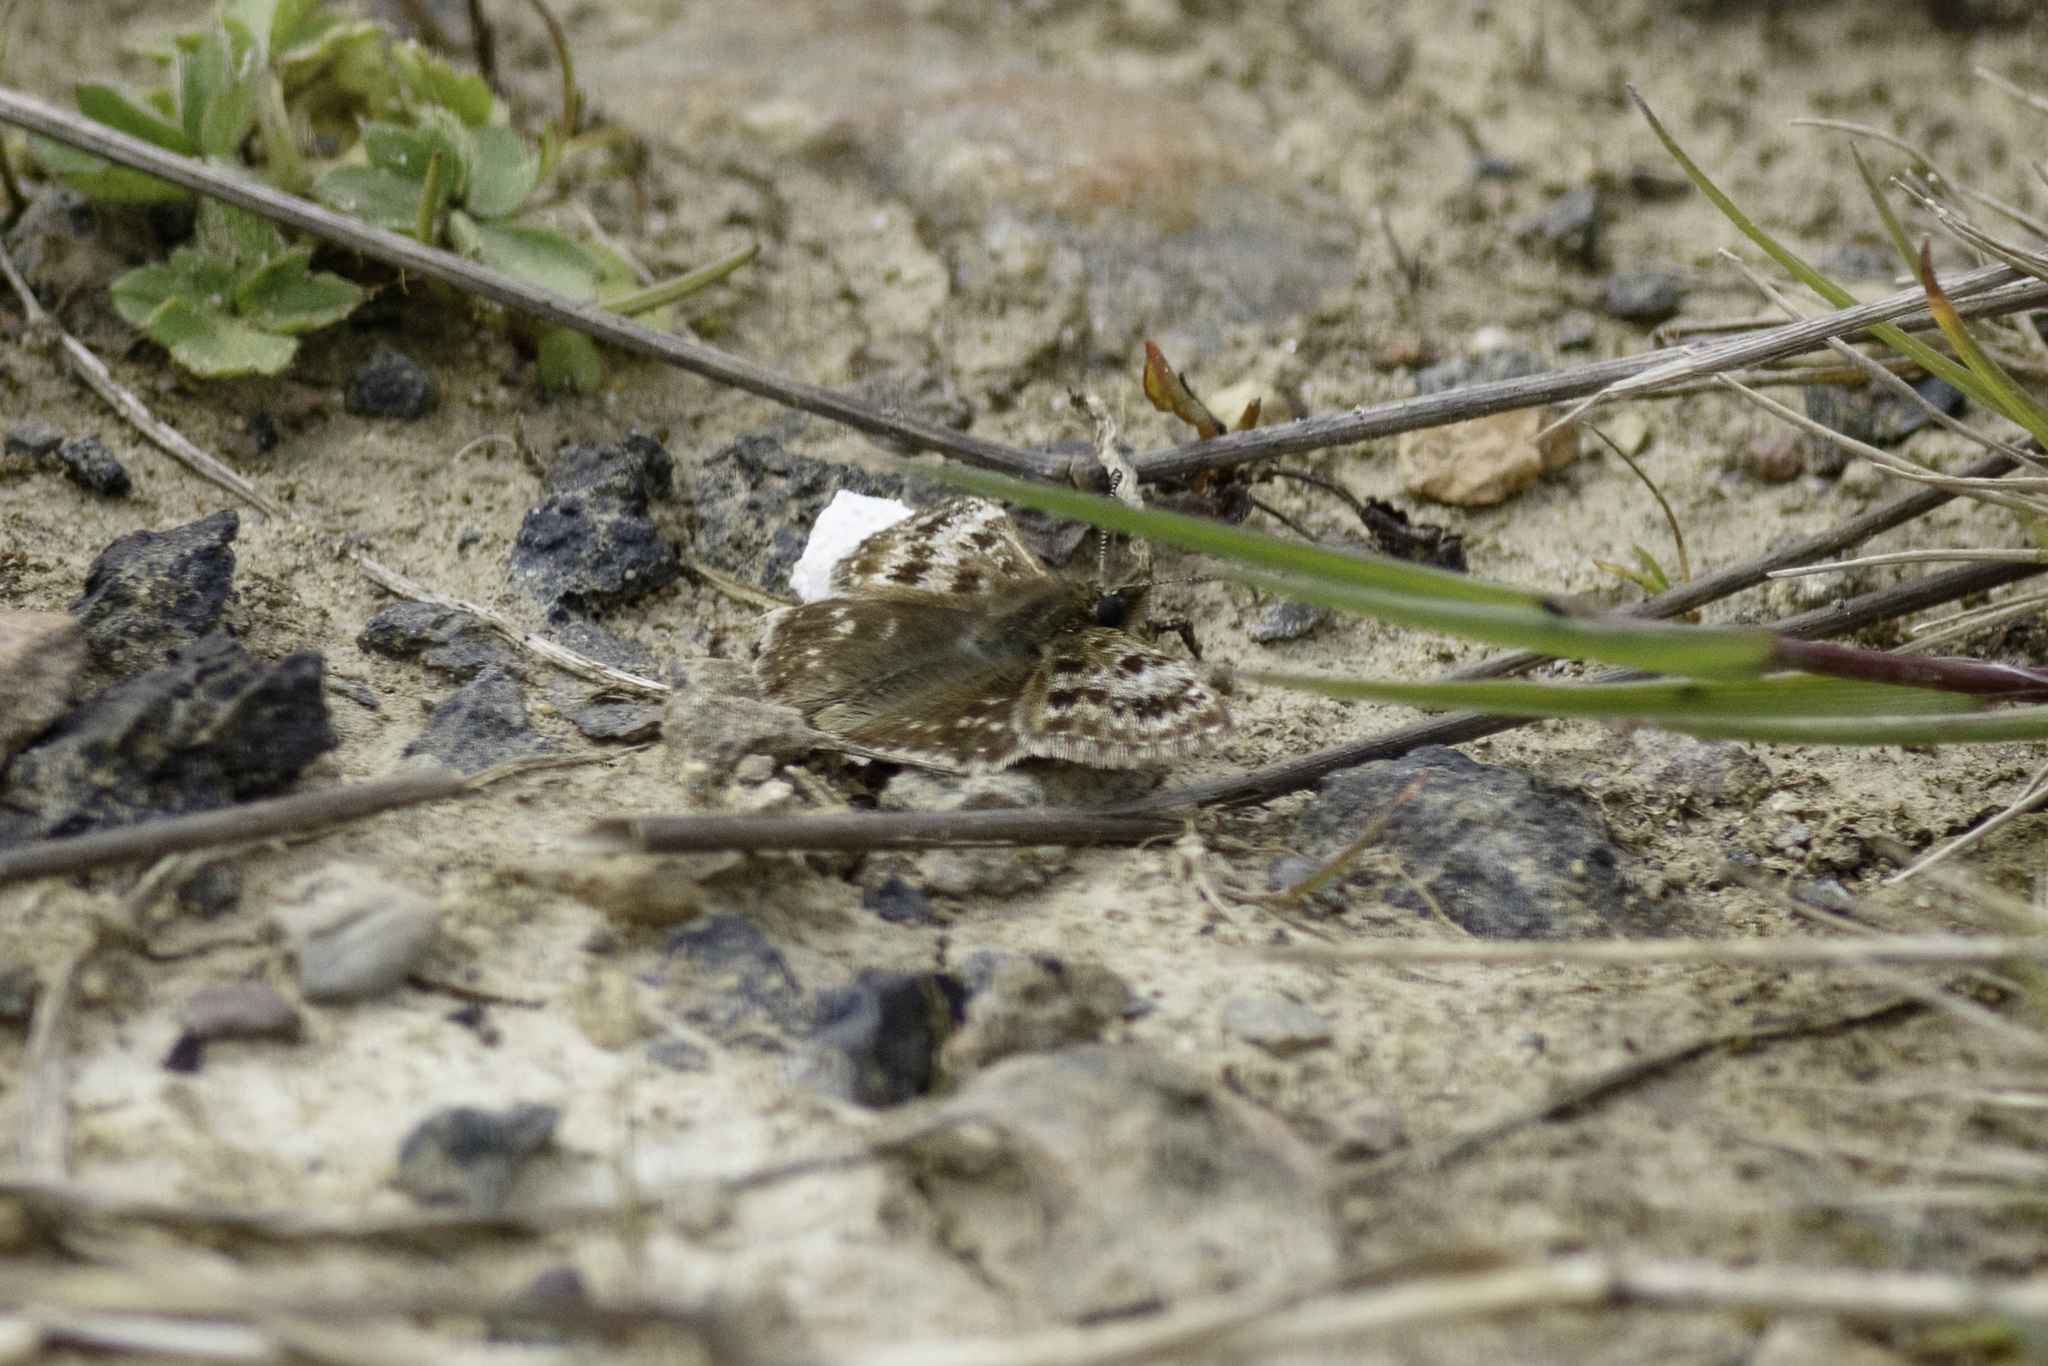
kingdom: Animalia
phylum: Arthropoda
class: Insecta
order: Lepidoptera
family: Hesperiidae
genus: Erynnis
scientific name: Erynnis tages
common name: Dingy skipper
